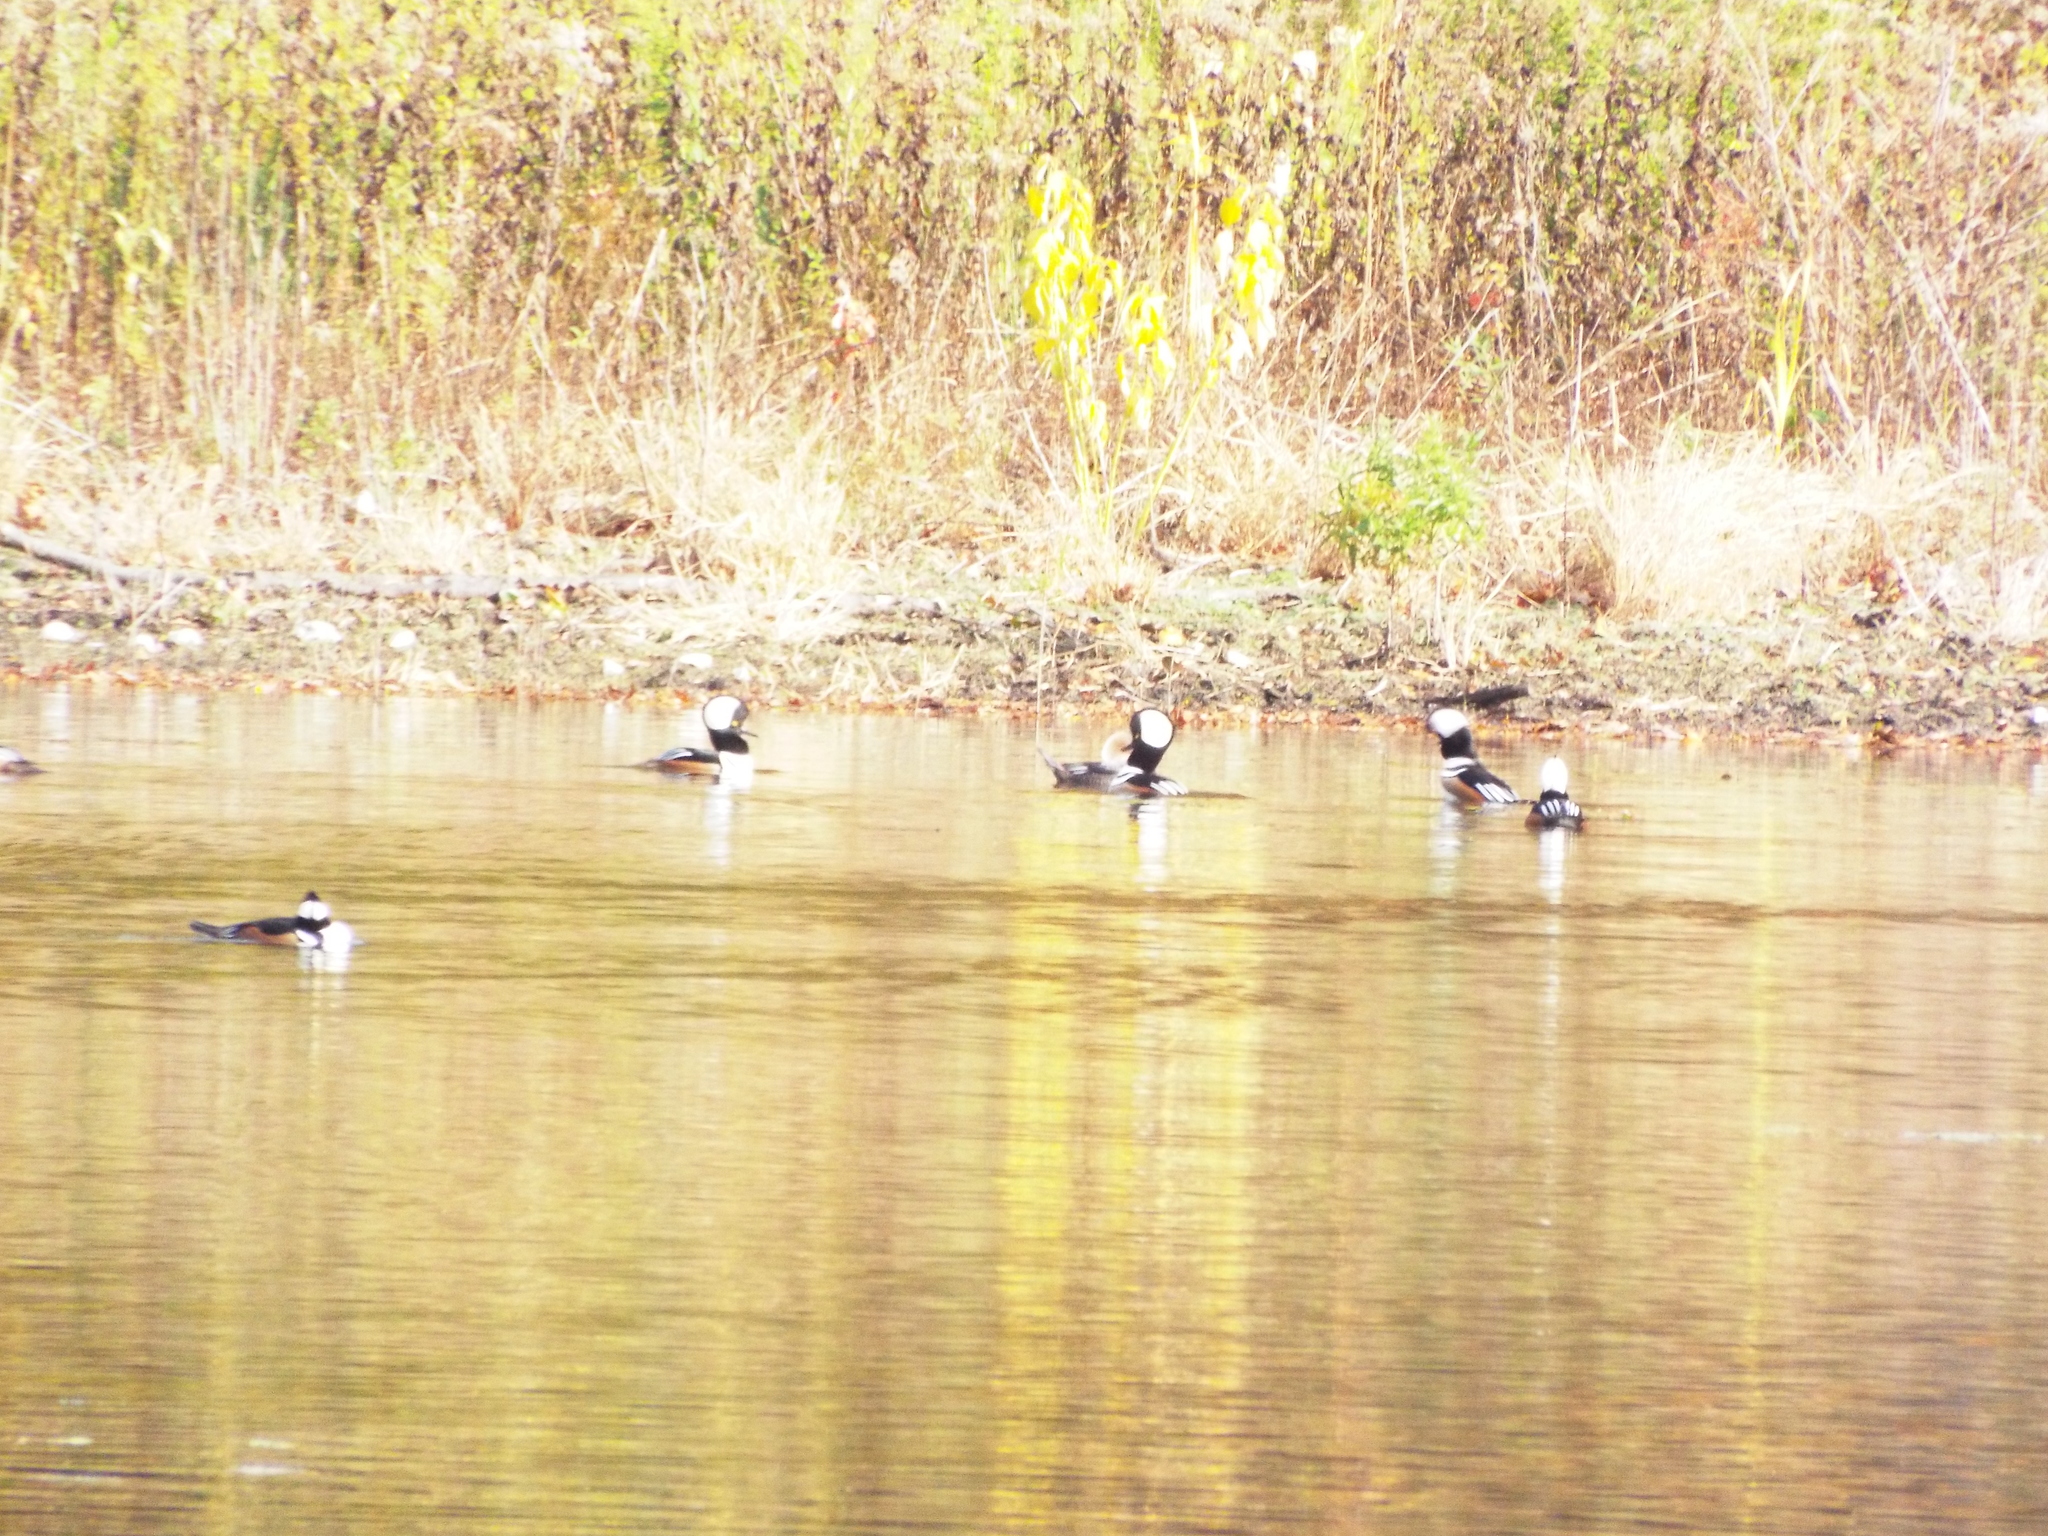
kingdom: Animalia
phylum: Chordata
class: Aves
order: Anseriformes
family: Anatidae
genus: Lophodytes
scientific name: Lophodytes cucullatus
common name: Hooded merganser
